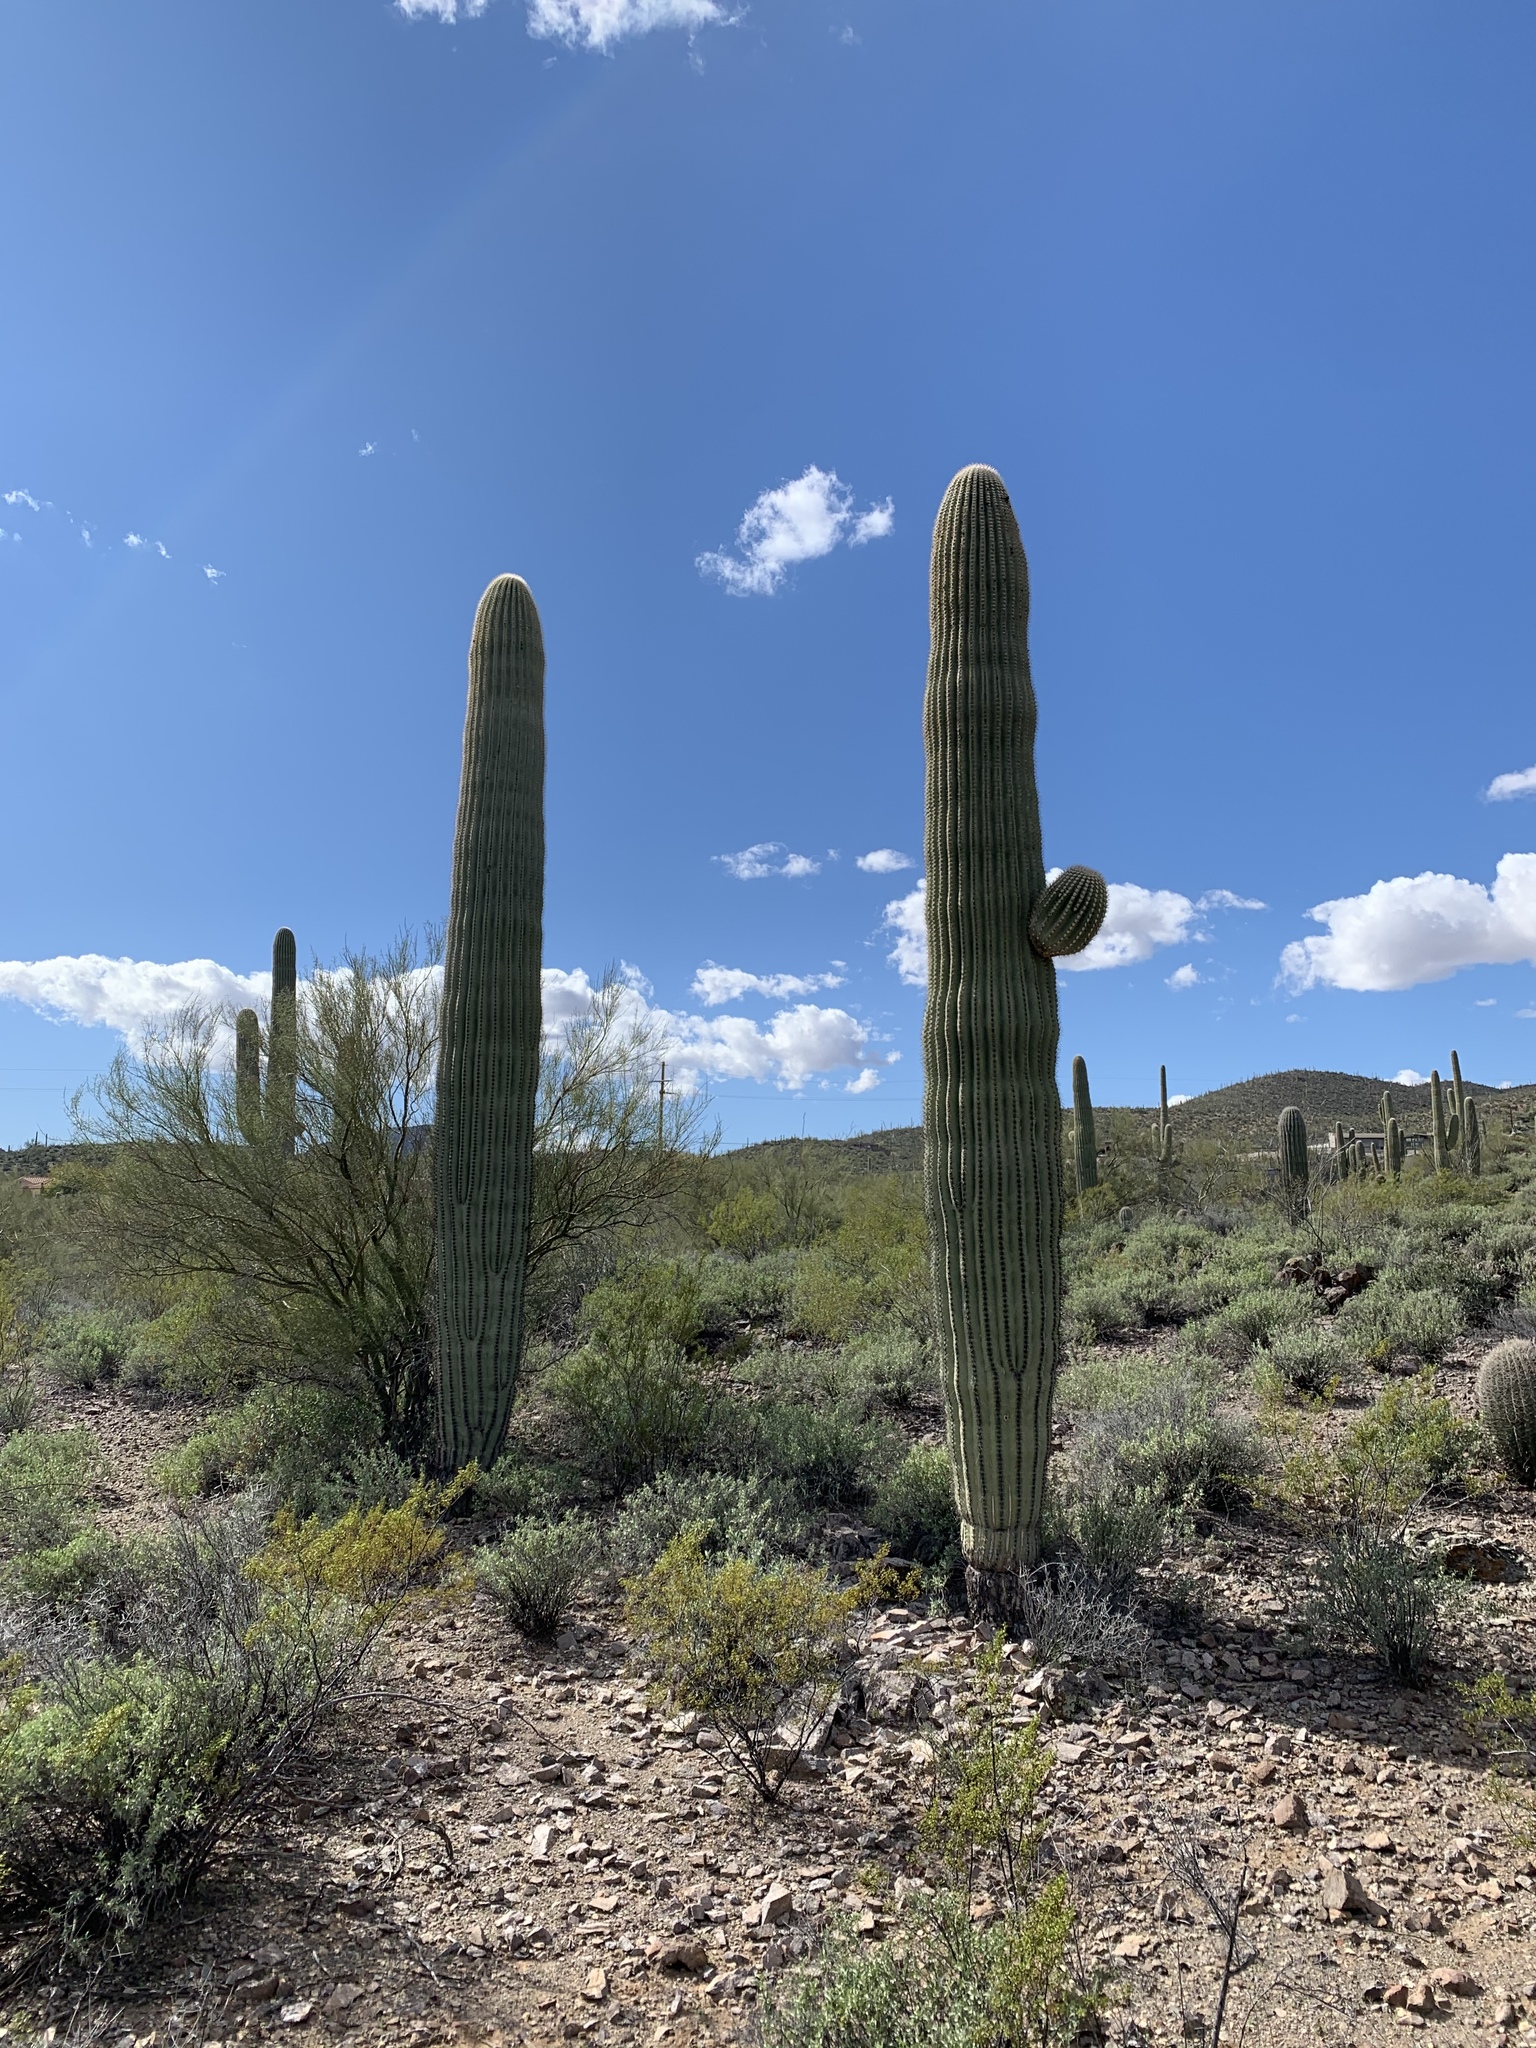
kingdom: Plantae
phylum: Tracheophyta
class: Magnoliopsida
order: Caryophyllales
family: Cactaceae
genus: Carnegiea
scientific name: Carnegiea gigantea
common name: Saguaro
